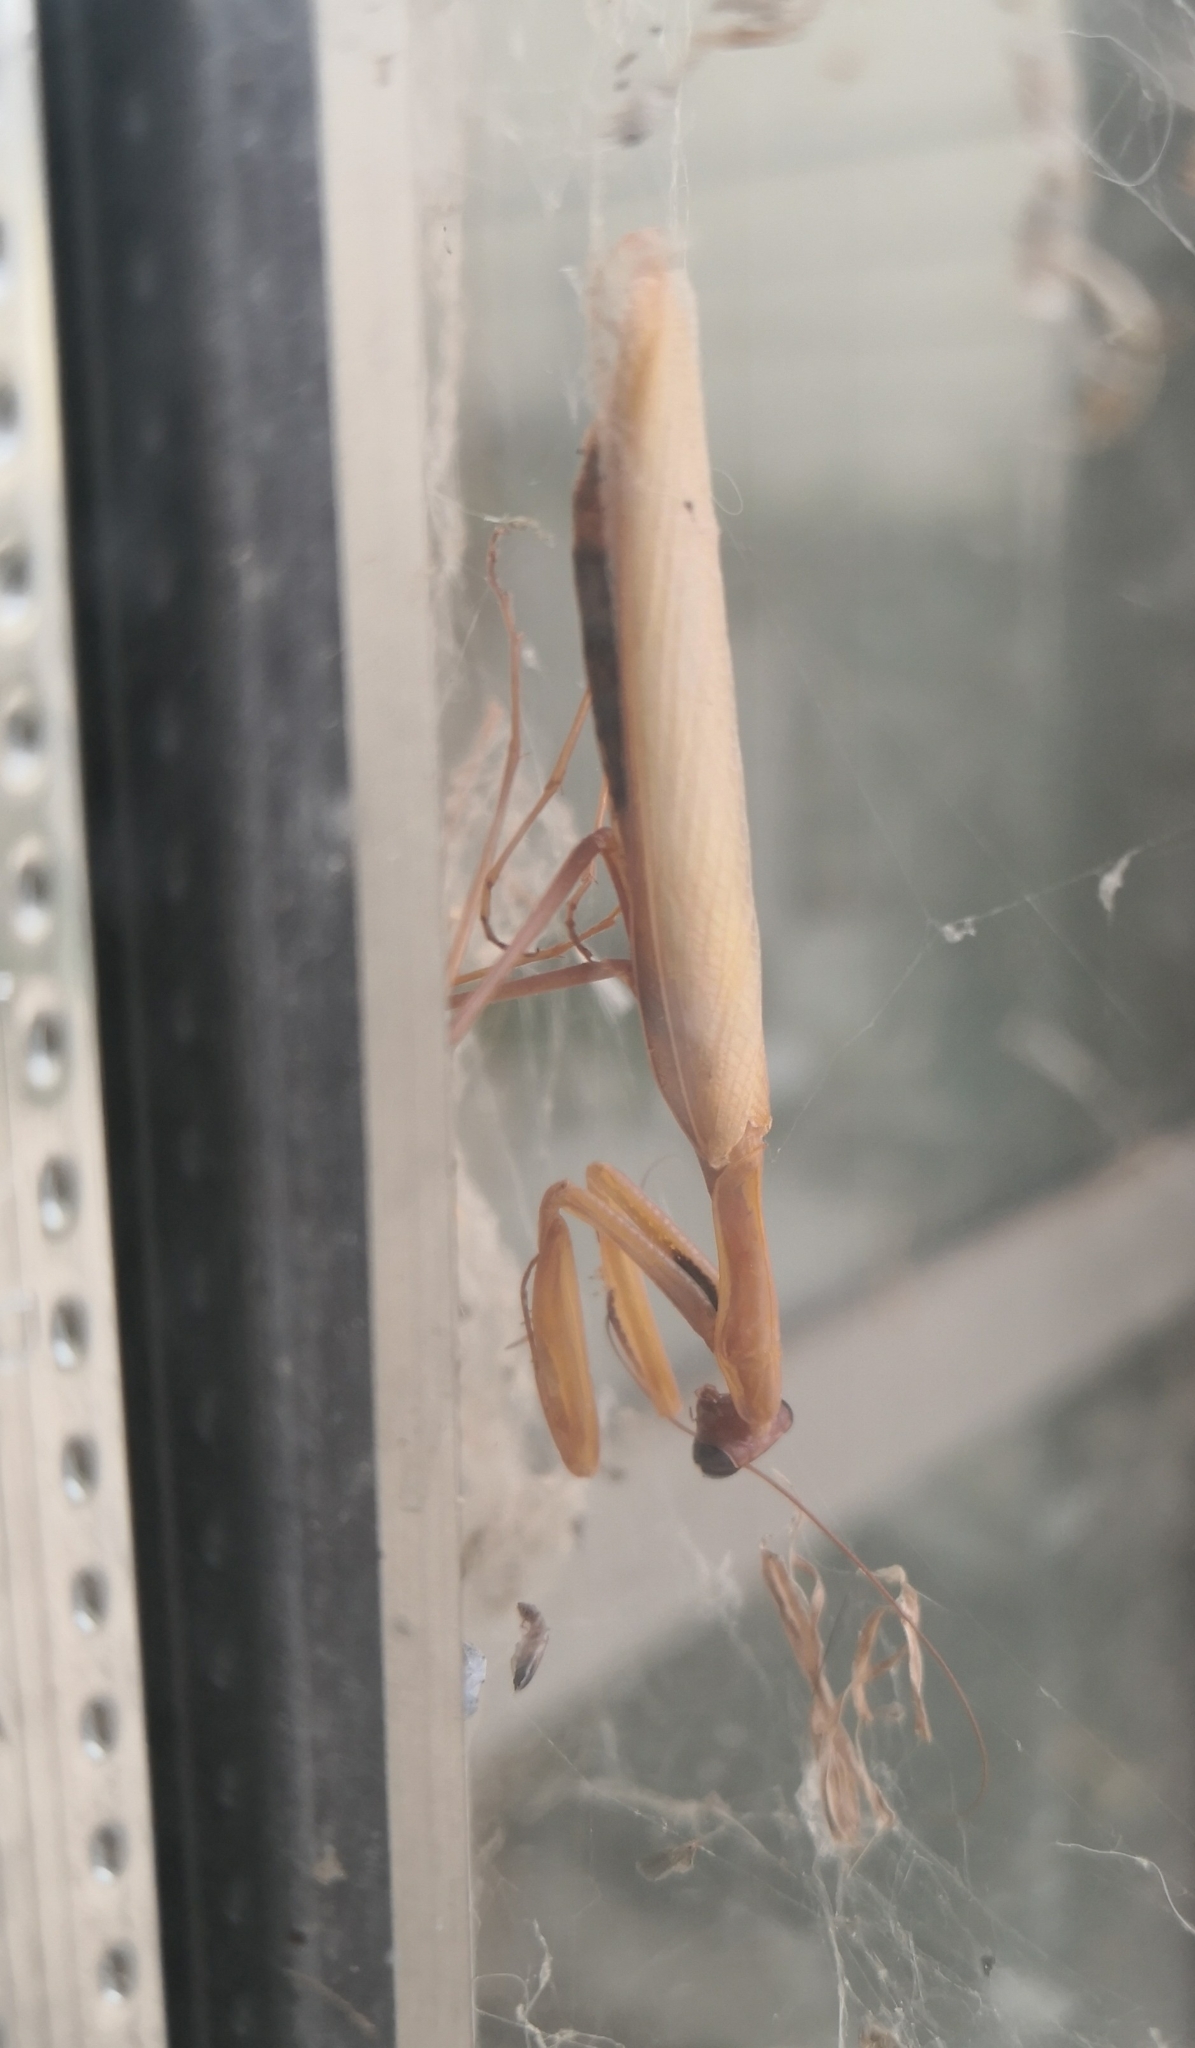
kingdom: Animalia
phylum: Arthropoda
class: Insecta
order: Mantodea
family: Mantidae
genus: Mantis
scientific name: Mantis religiosa
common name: Praying mantis
